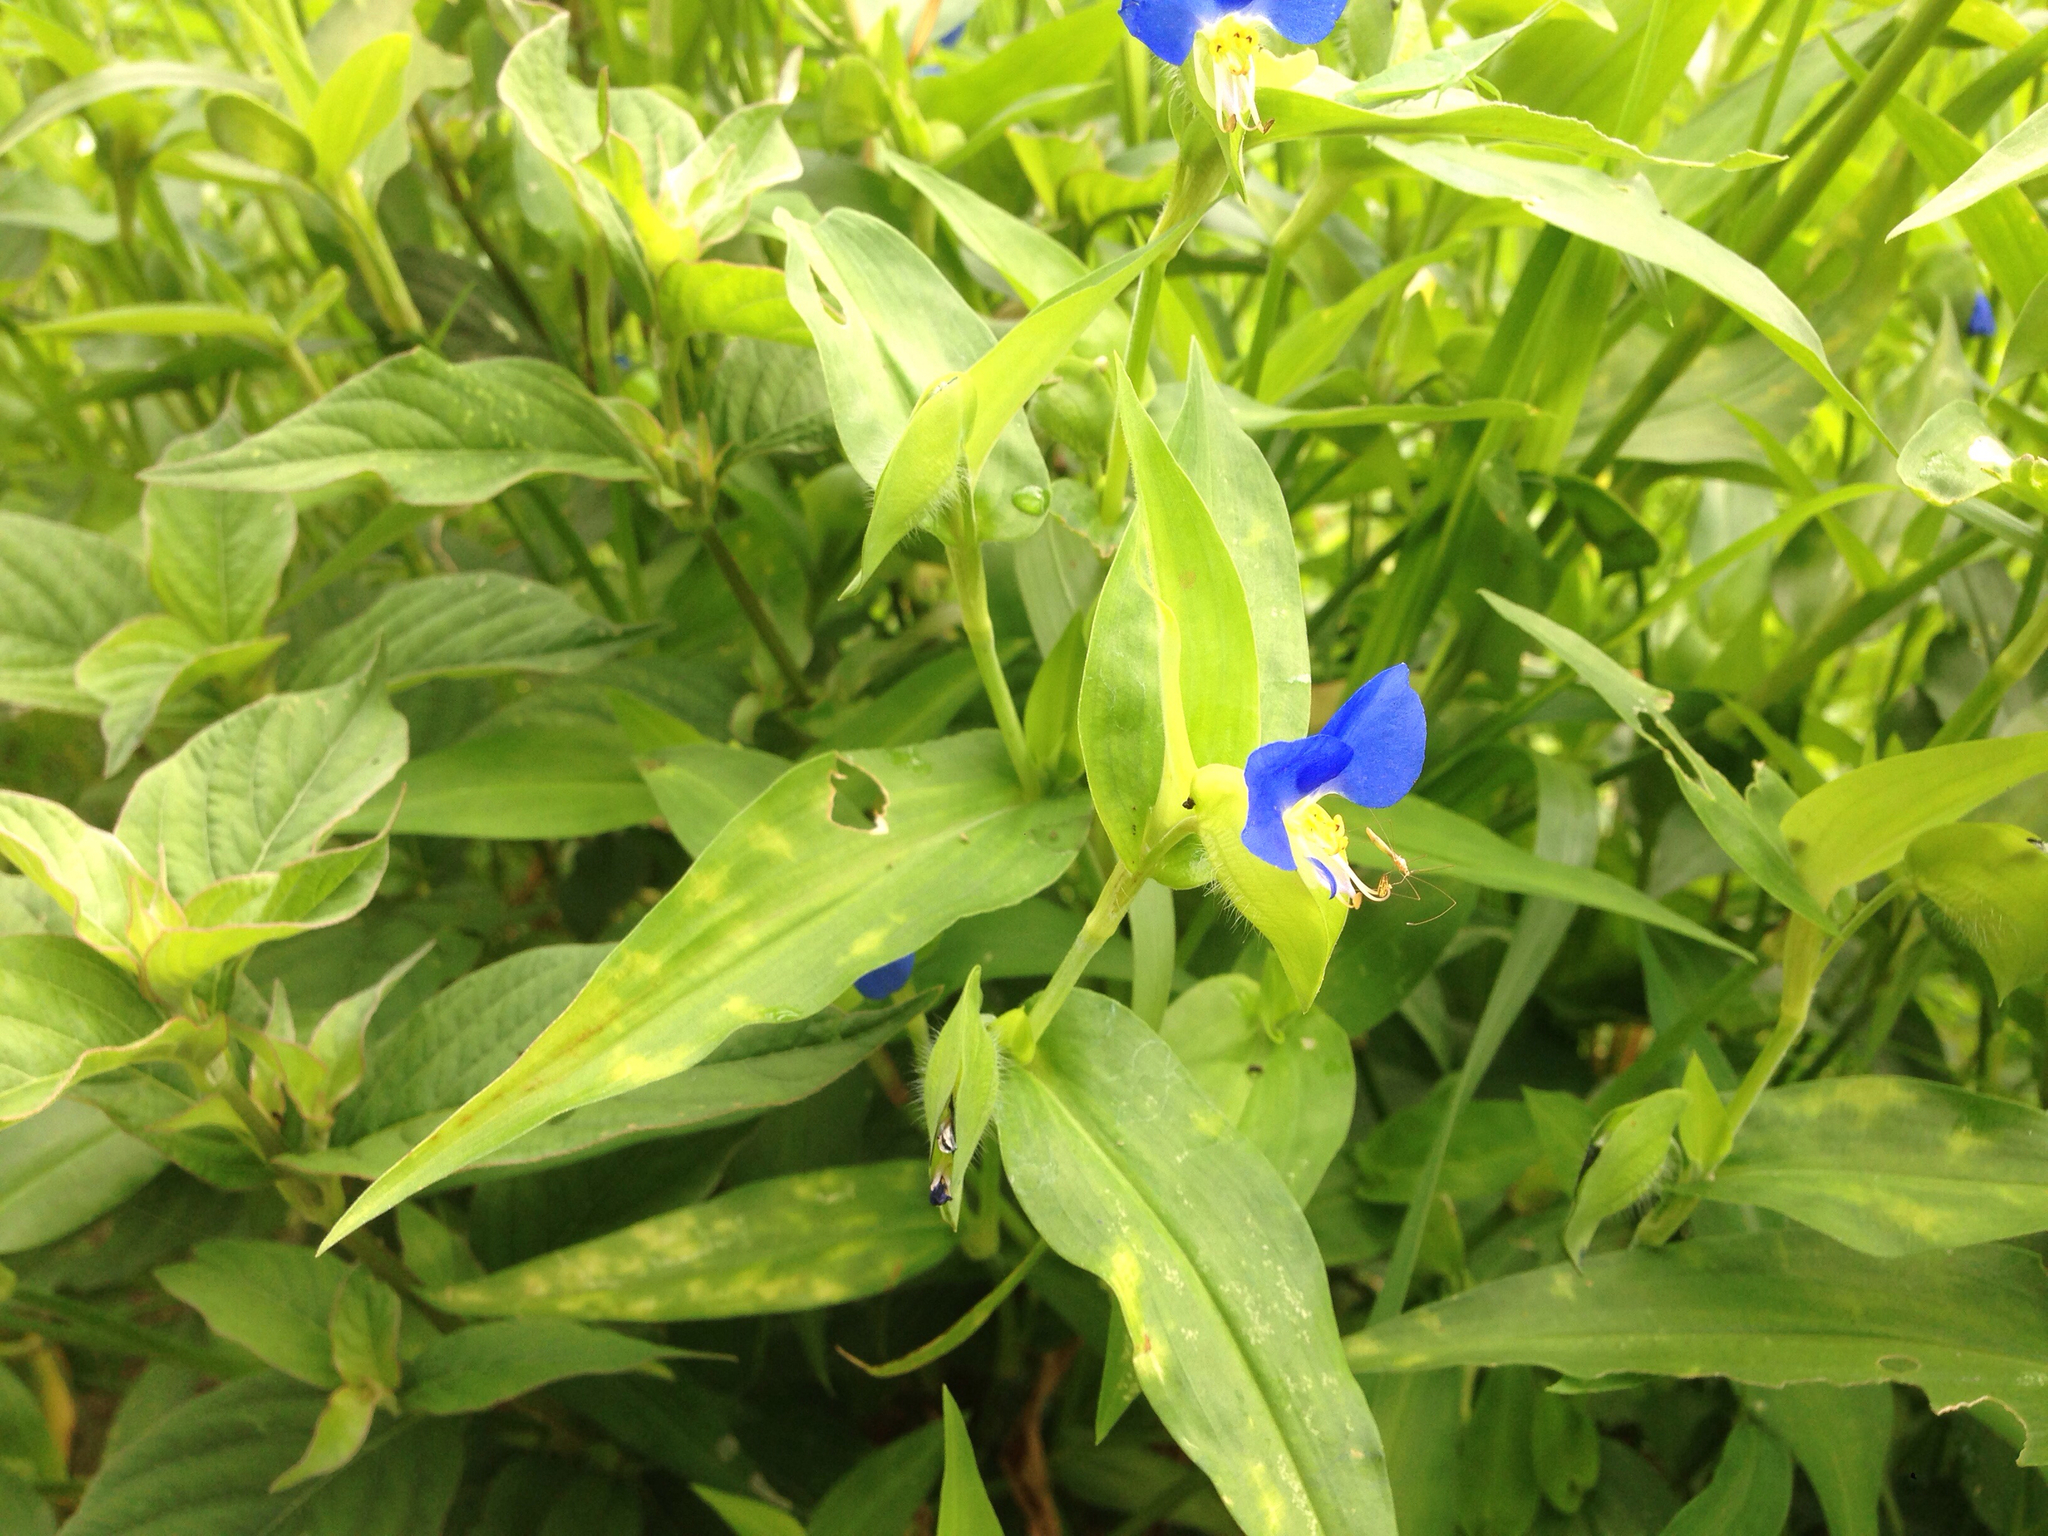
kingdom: Plantae
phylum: Tracheophyta
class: Liliopsida
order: Commelinales
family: Commelinaceae
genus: Commelina
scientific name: Commelina communis
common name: Asiatic dayflower
